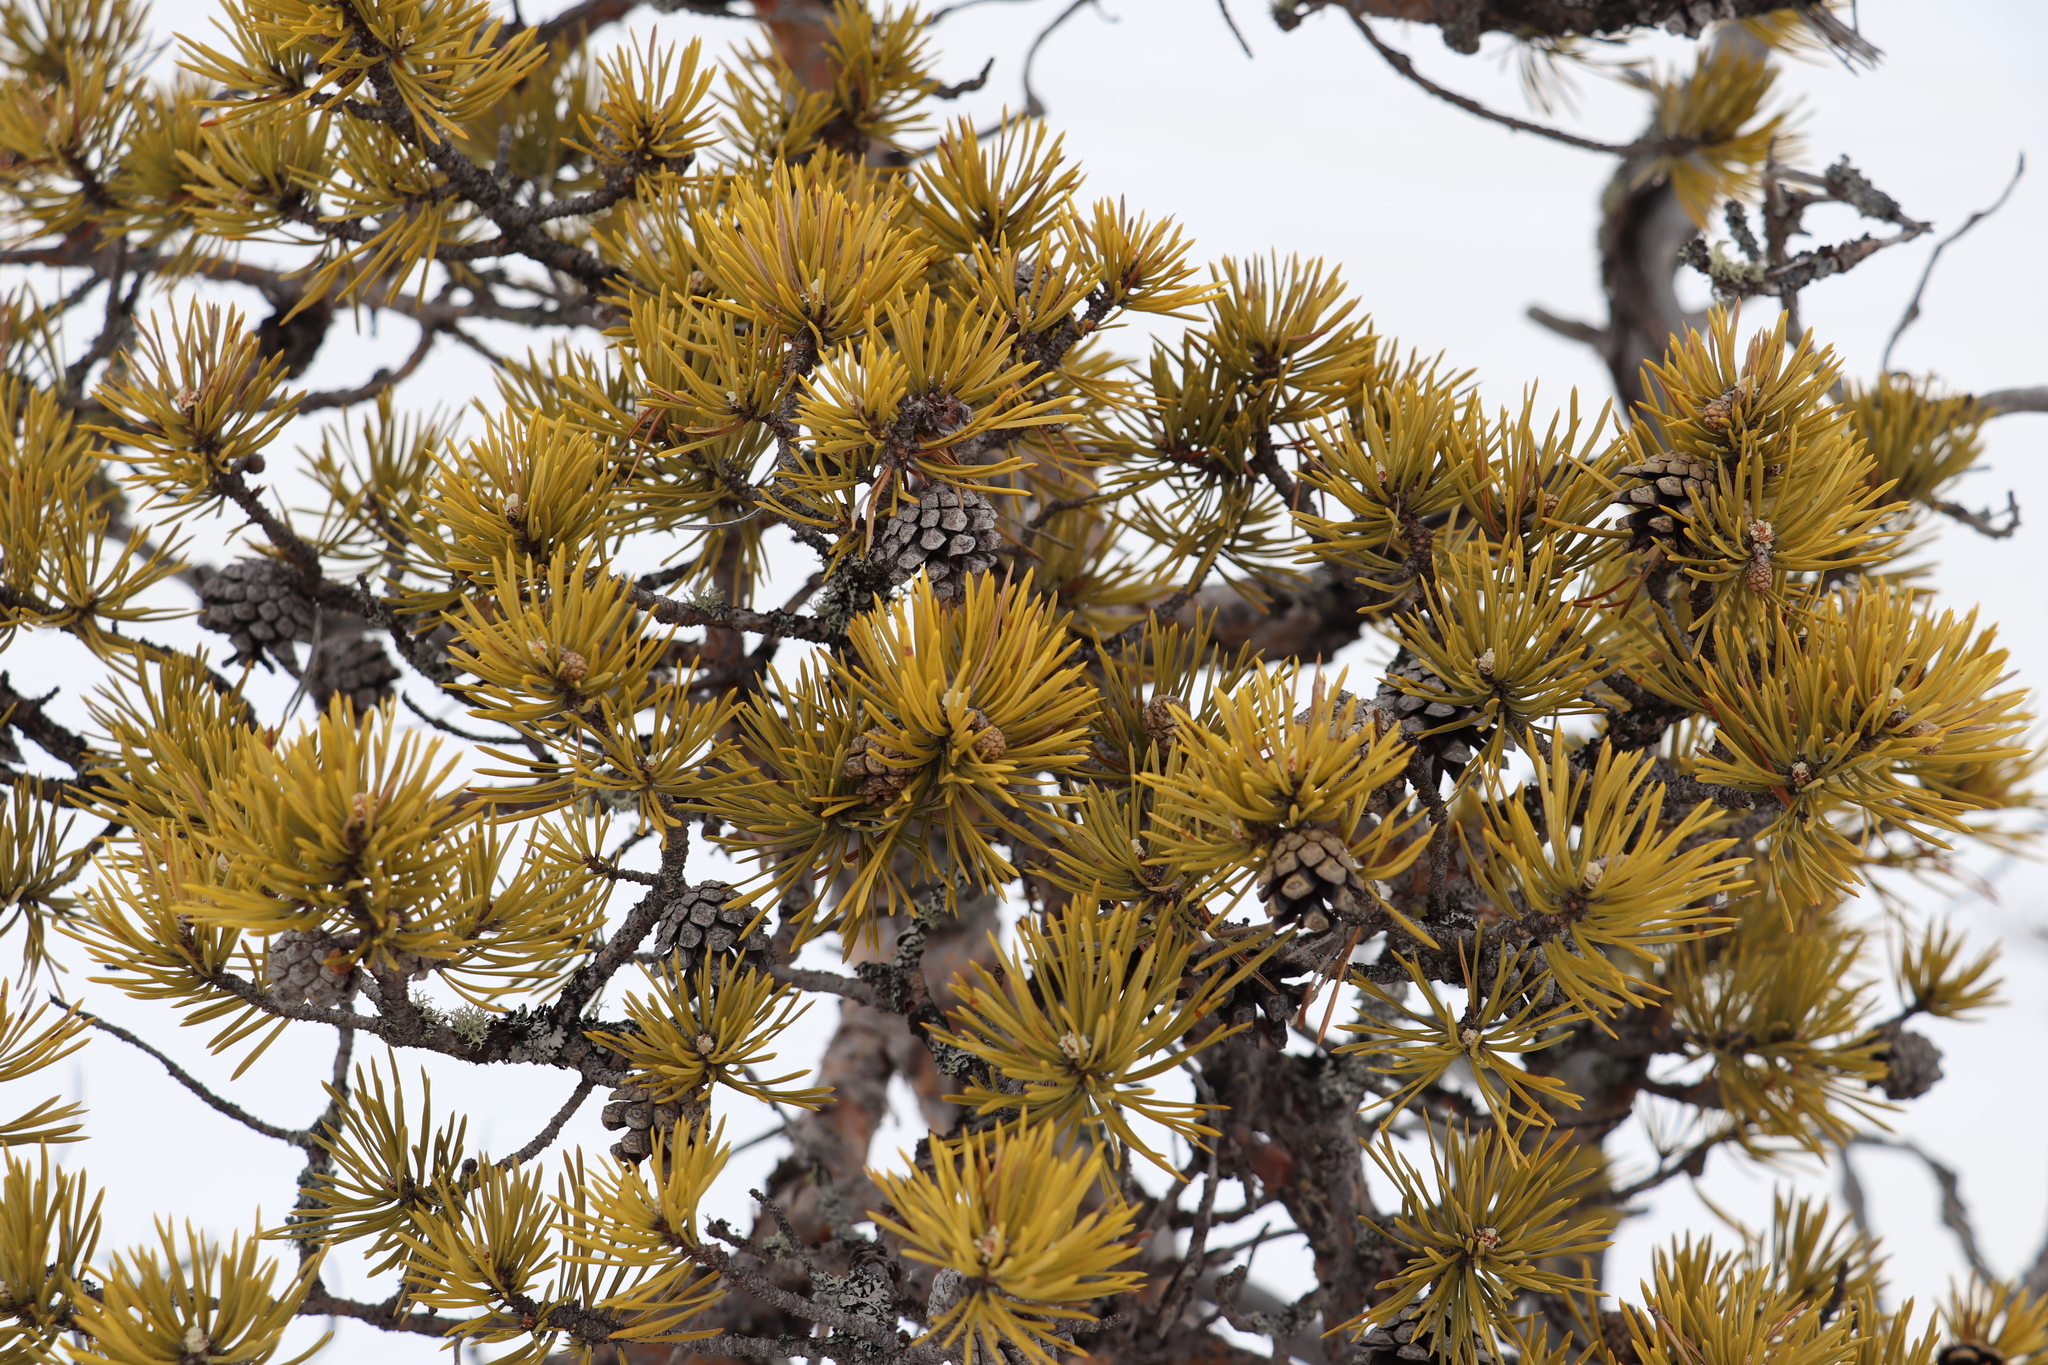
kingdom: Plantae
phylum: Tracheophyta
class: Pinopsida
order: Pinales
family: Pinaceae
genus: Pinus
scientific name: Pinus sylvestris
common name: Scots pine
